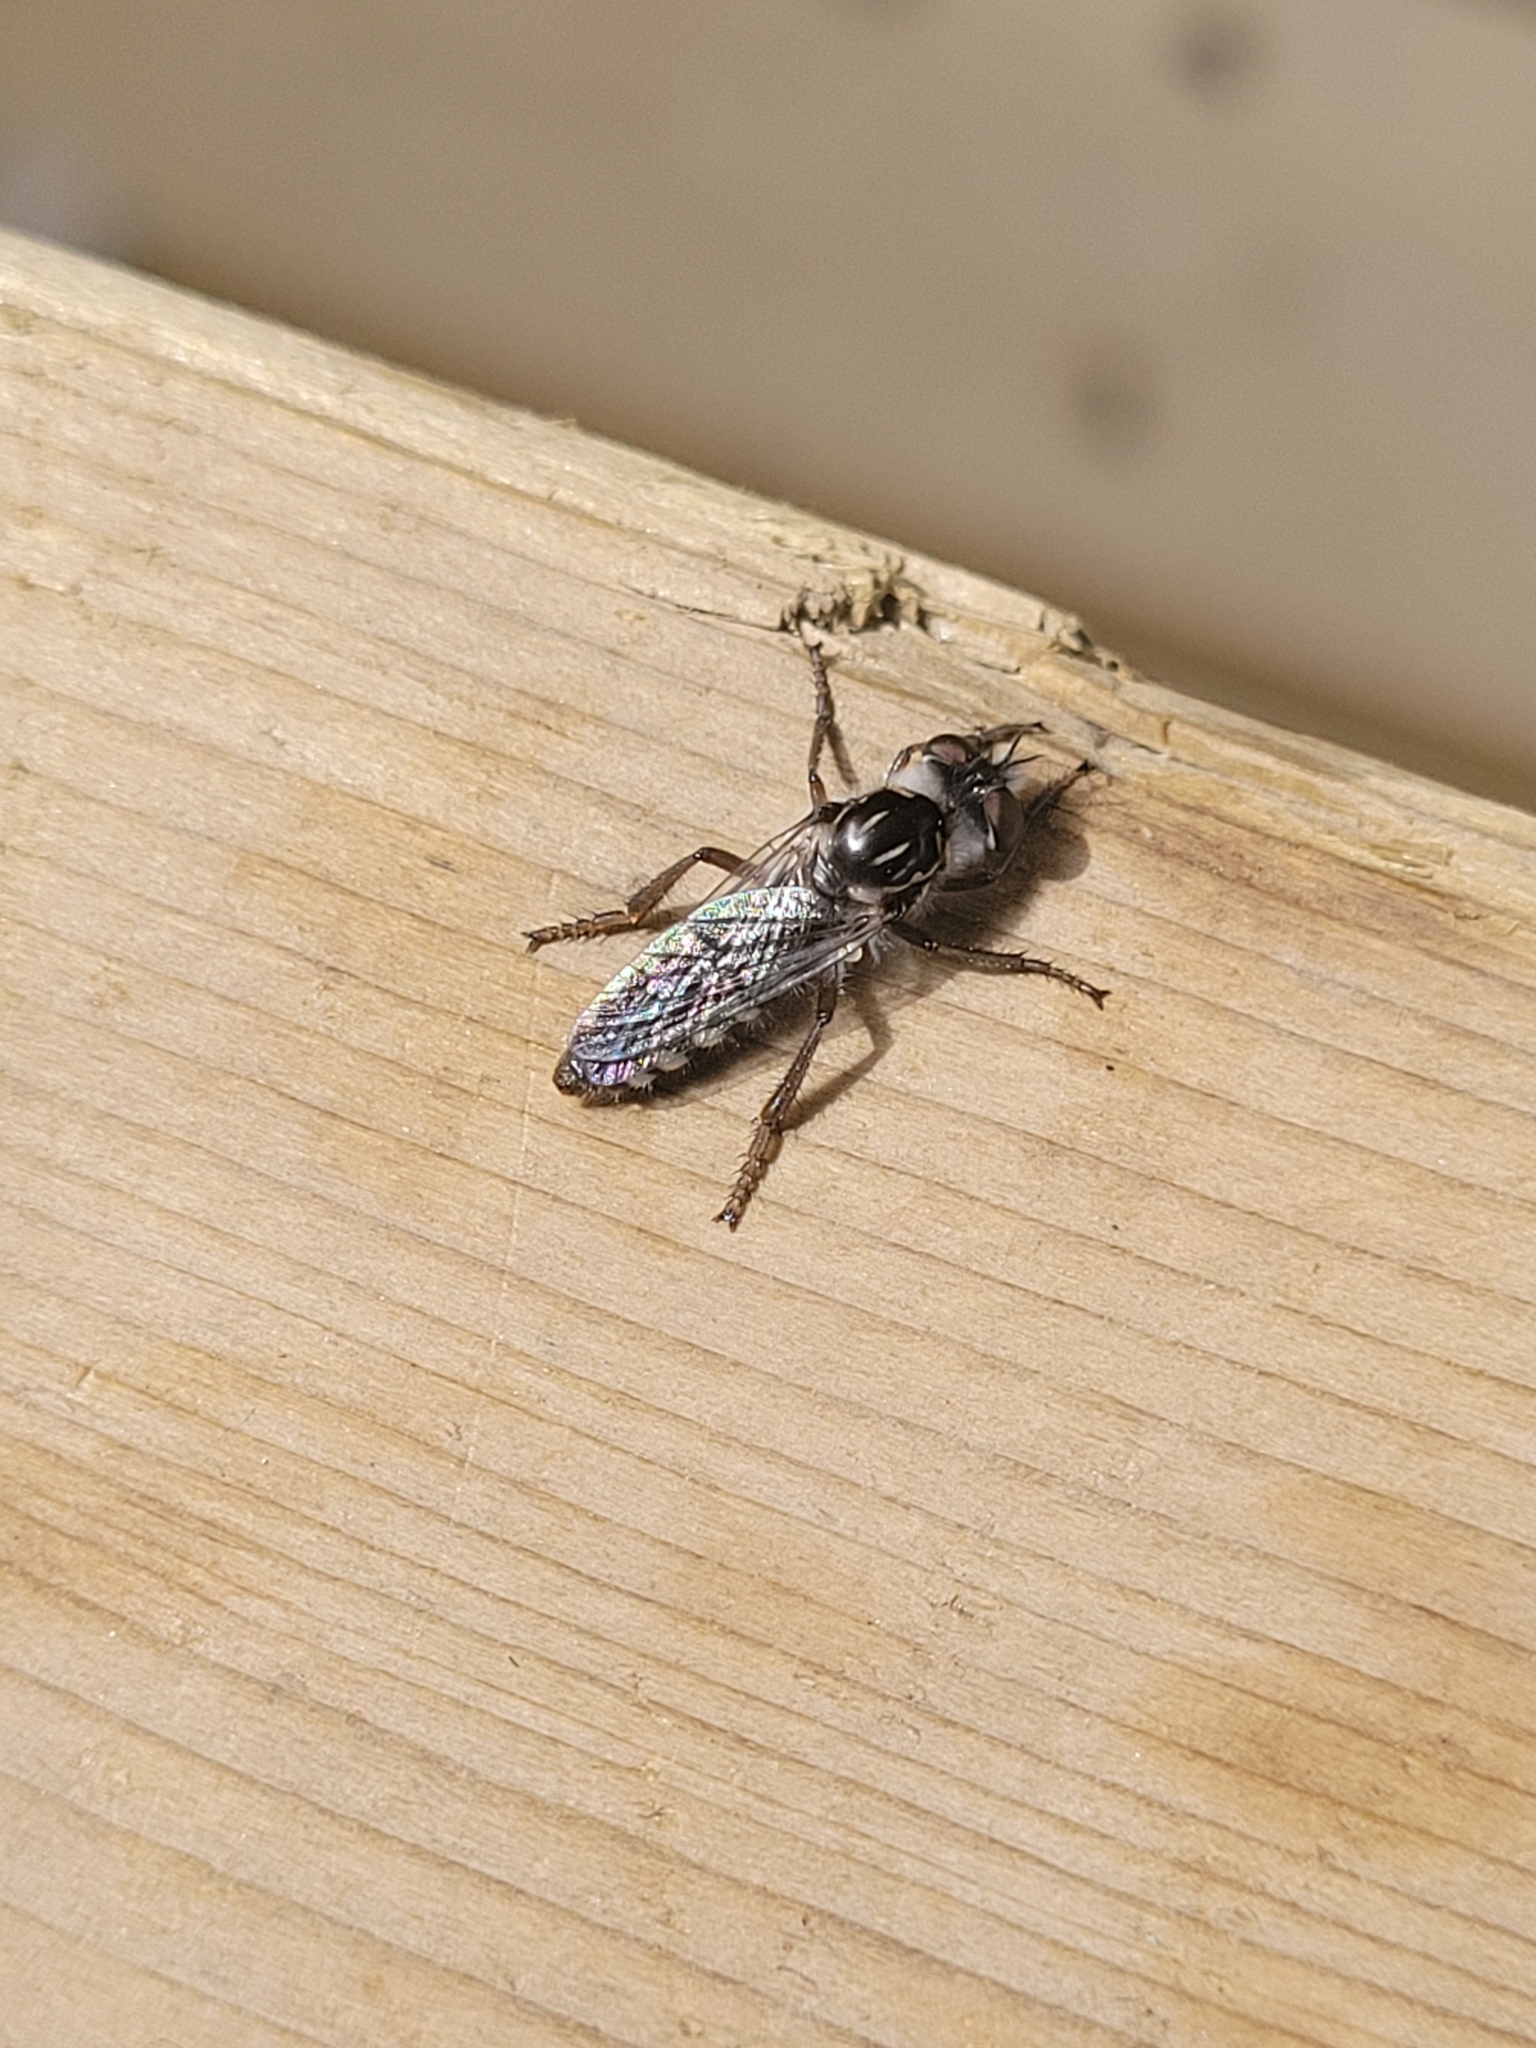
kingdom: Animalia
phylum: Arthropoda
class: Insecta
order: Diptera
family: Asilidae
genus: Cyrtopogon
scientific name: Cyrtopogon alleni
